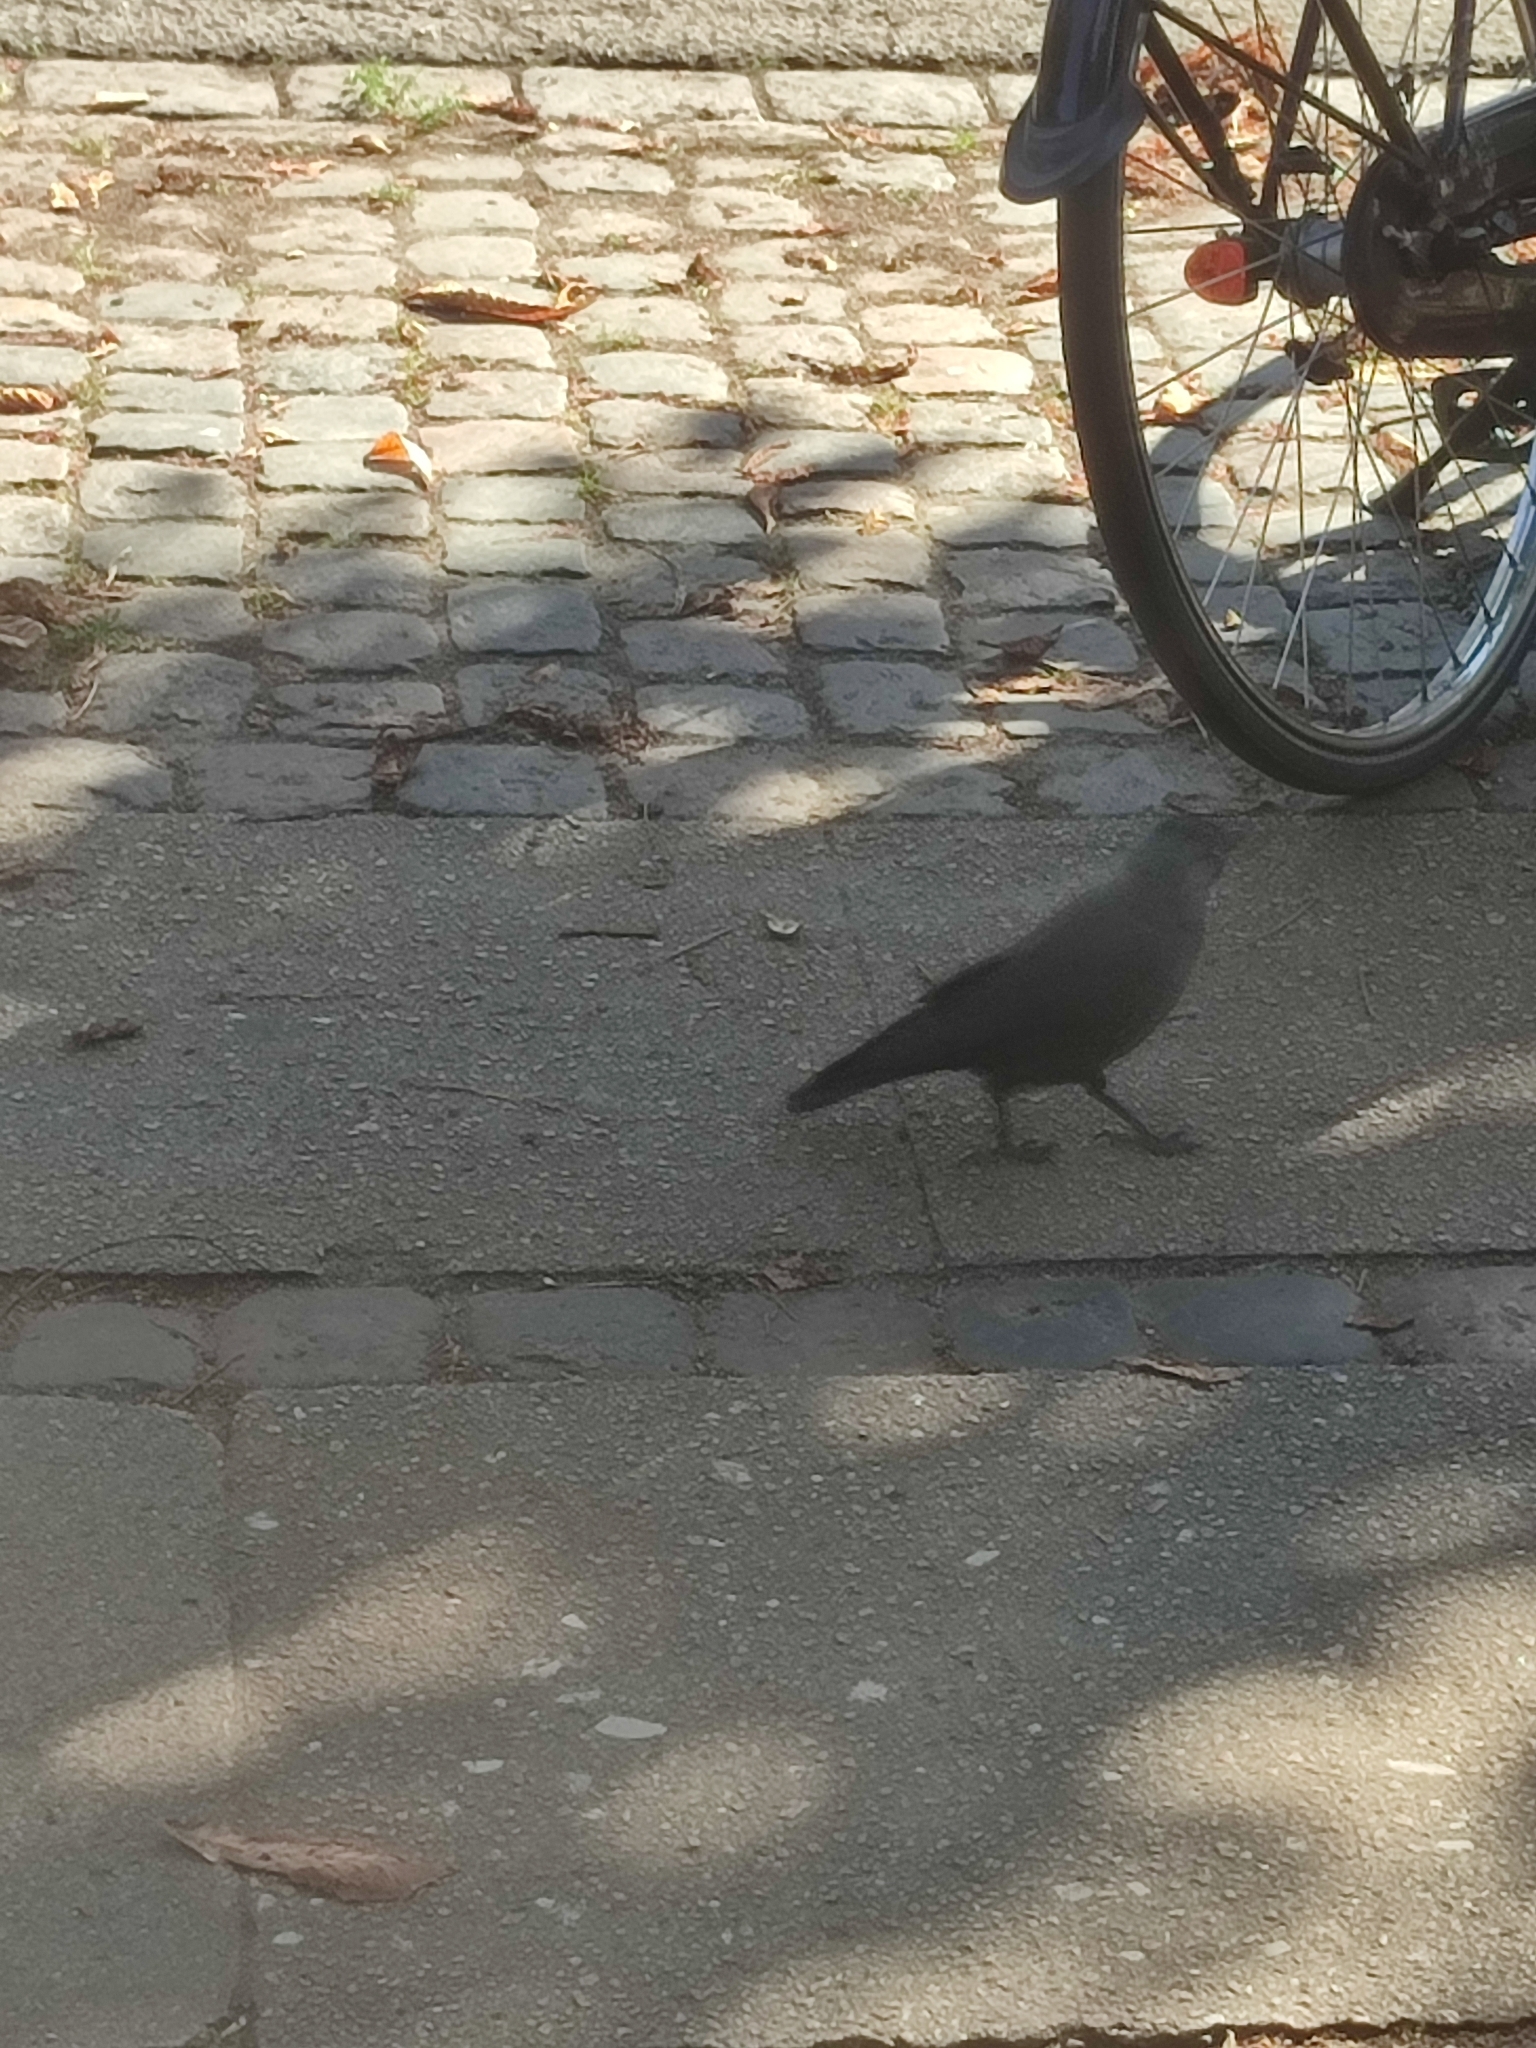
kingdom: Animalia
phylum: Chordata
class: Aves
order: Passeriformes
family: Corvidae
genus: Coloeus
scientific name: Coloeus monedula
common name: Western jackdaw
